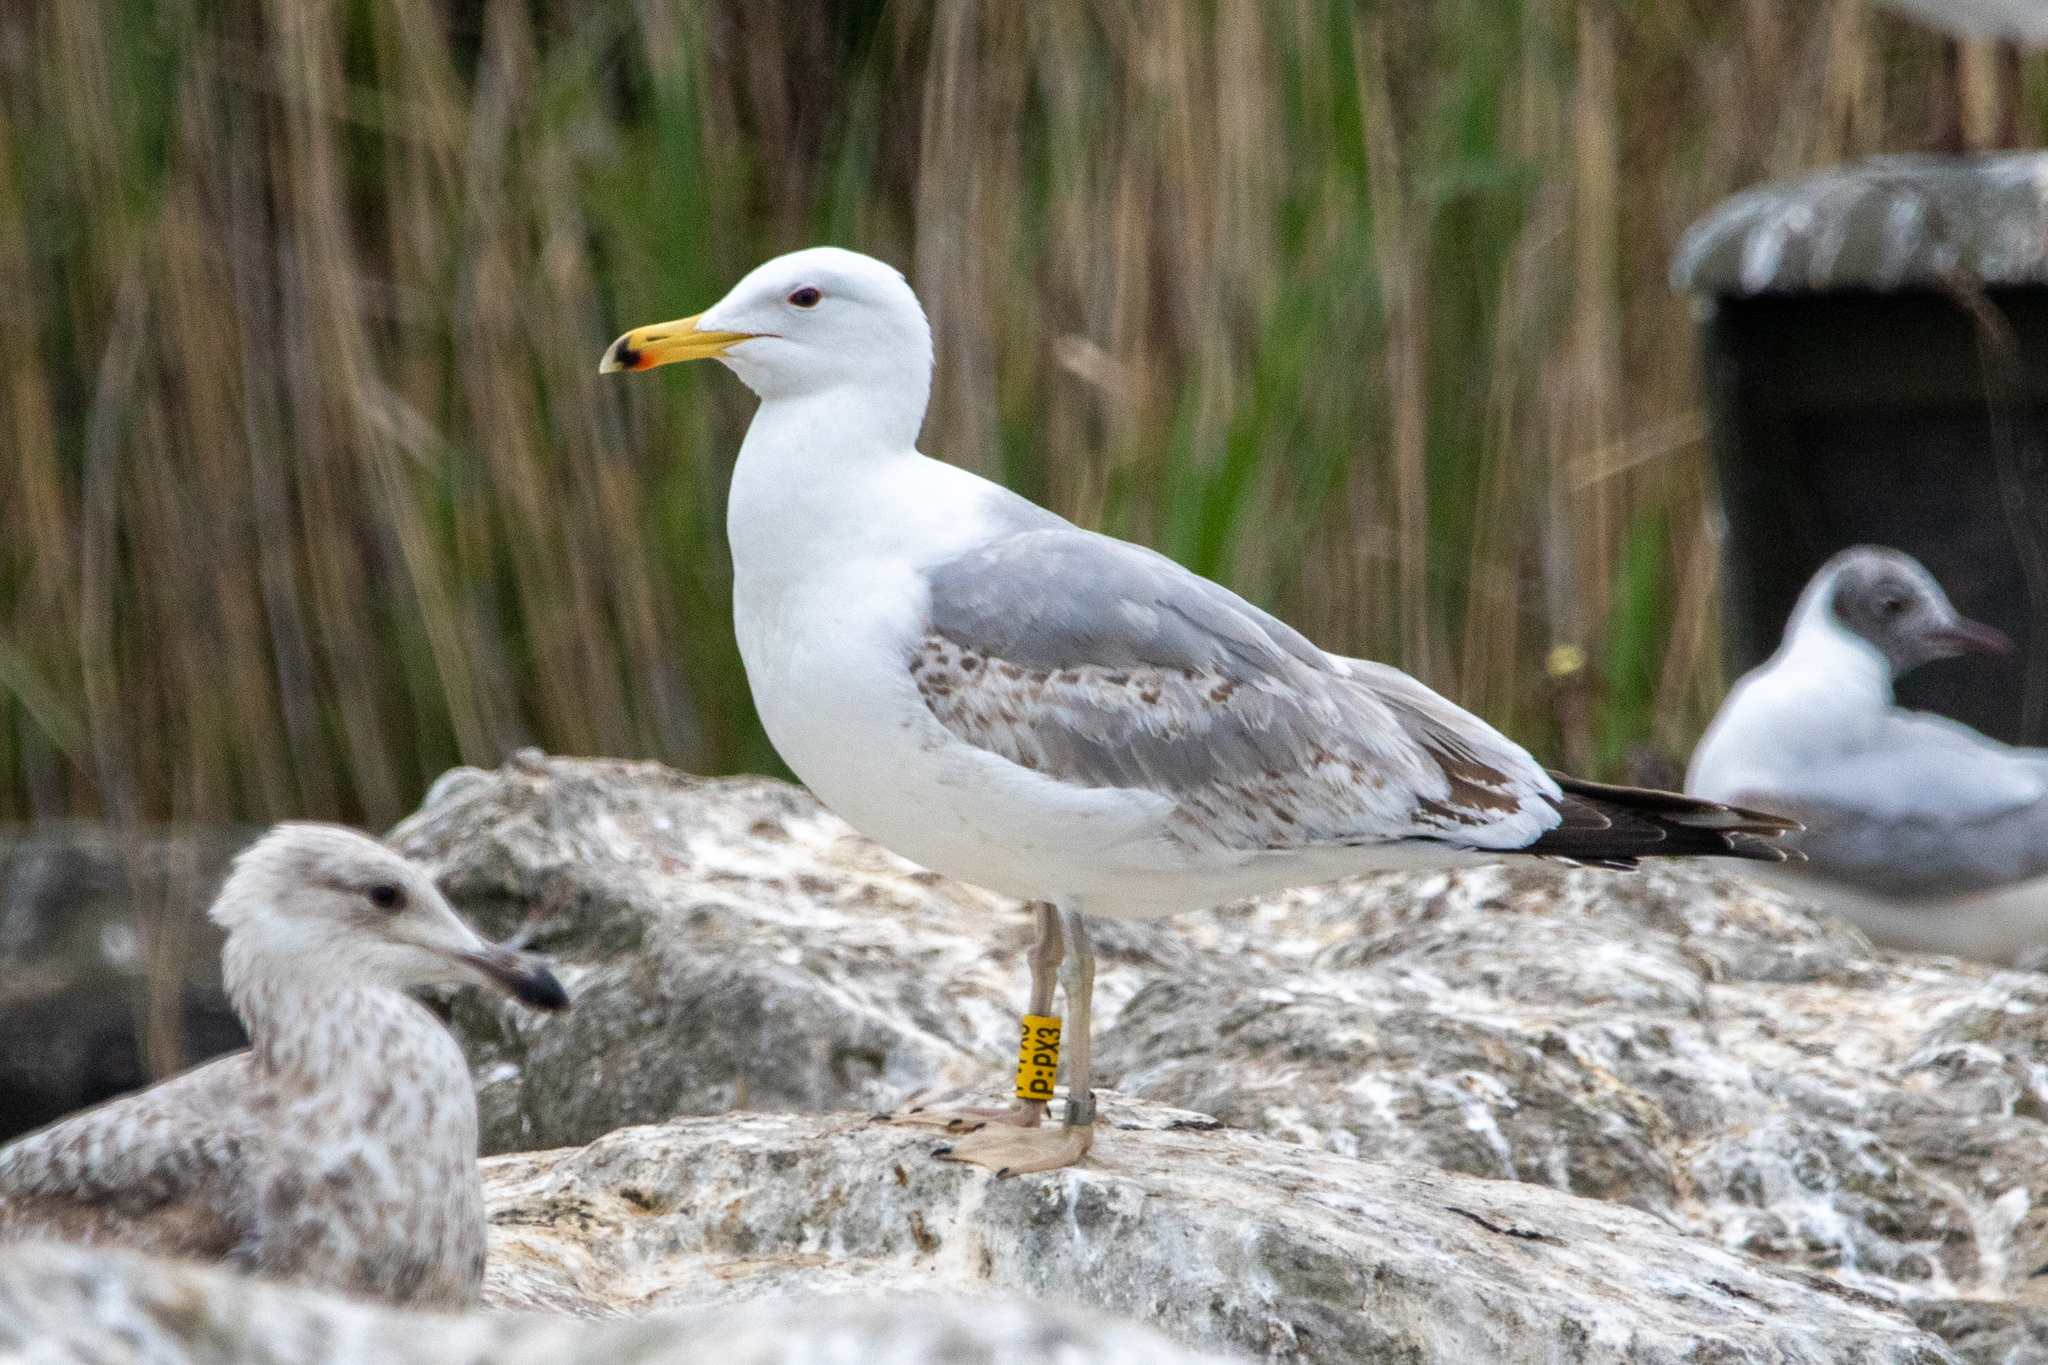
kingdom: Animalia
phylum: Chordata
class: Aves
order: Charadriiformes
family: Laridae
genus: Larus
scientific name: Larus cachinnans
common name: Caspian gull
